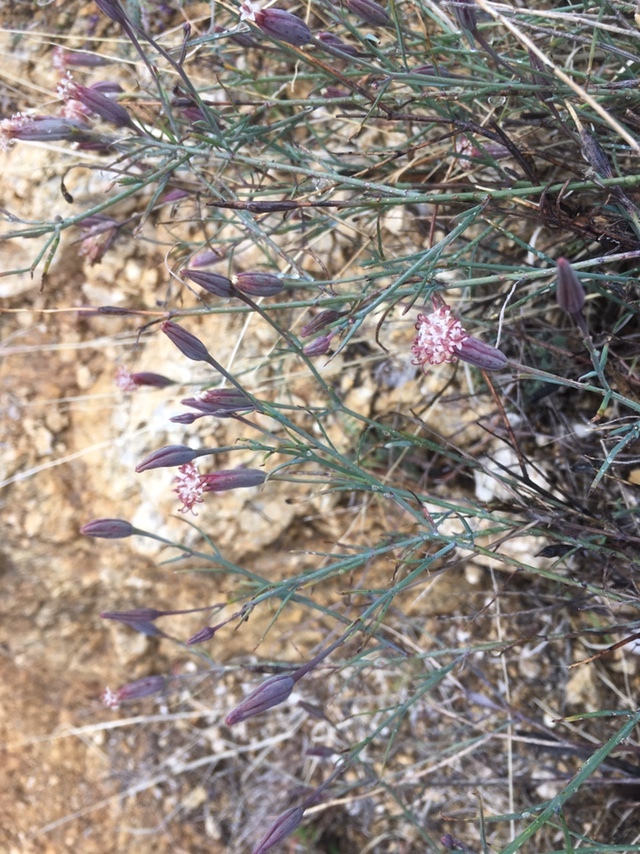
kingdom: Plantae
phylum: Tracheophyta
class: Magnoliopsida
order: Asterales
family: Asteraceae
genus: Porophyllum
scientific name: Porophyllum gracile
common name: Odora
